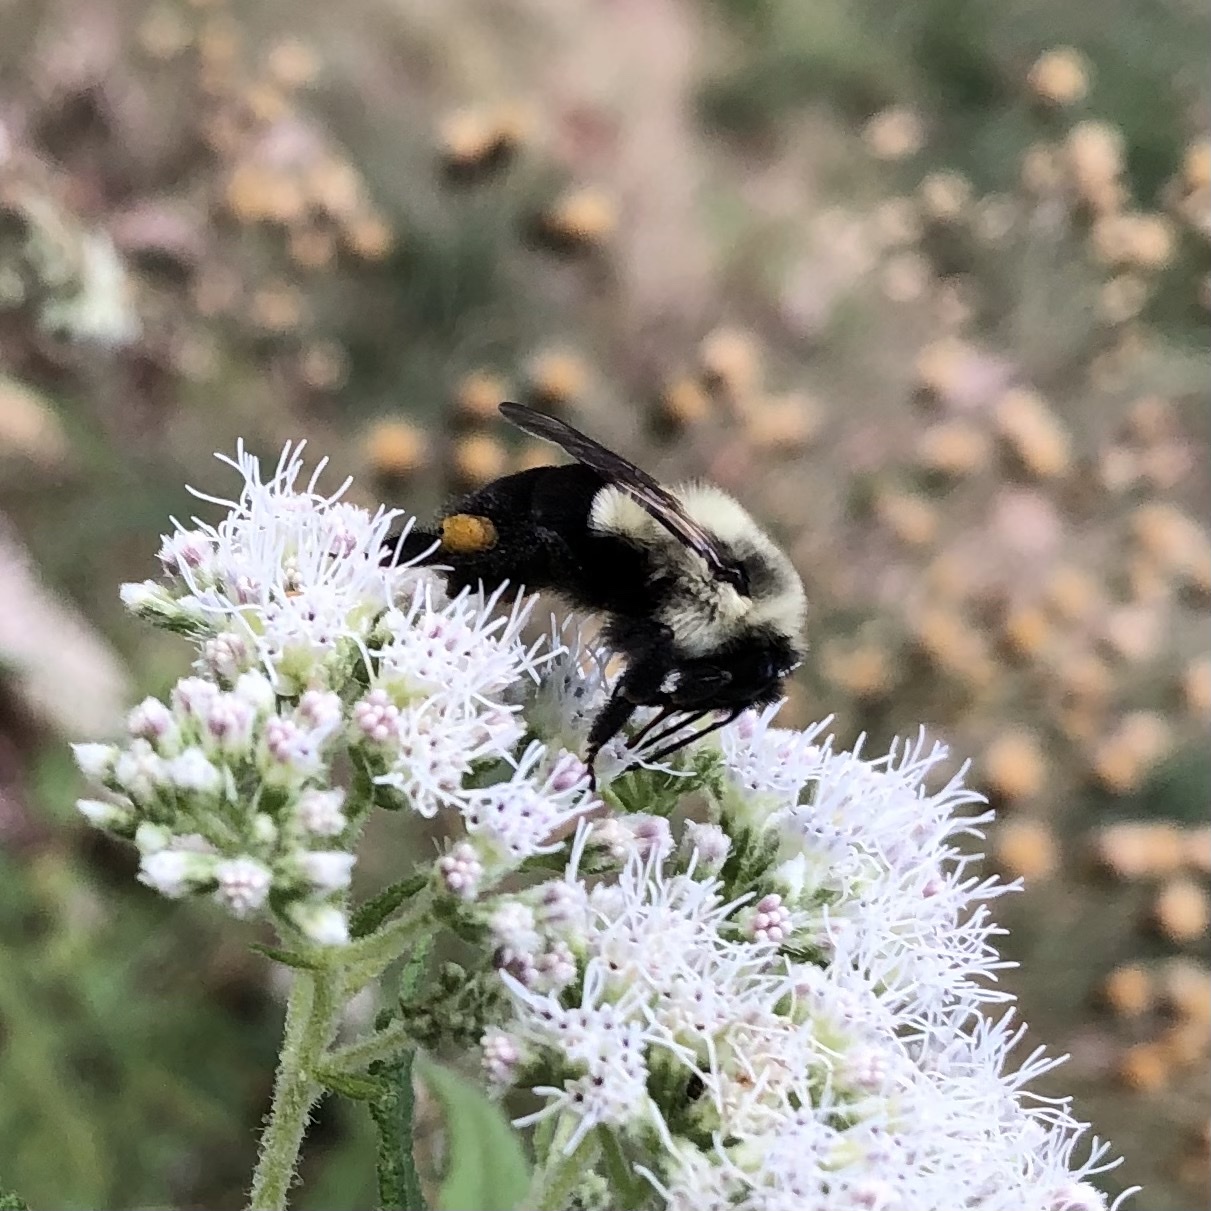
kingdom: Animalia
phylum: Arthropoda
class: Insecta
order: Hymenoptera
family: Apidae
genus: Bombus
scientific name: Bombus impatiens
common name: Common eastern bumble bee
